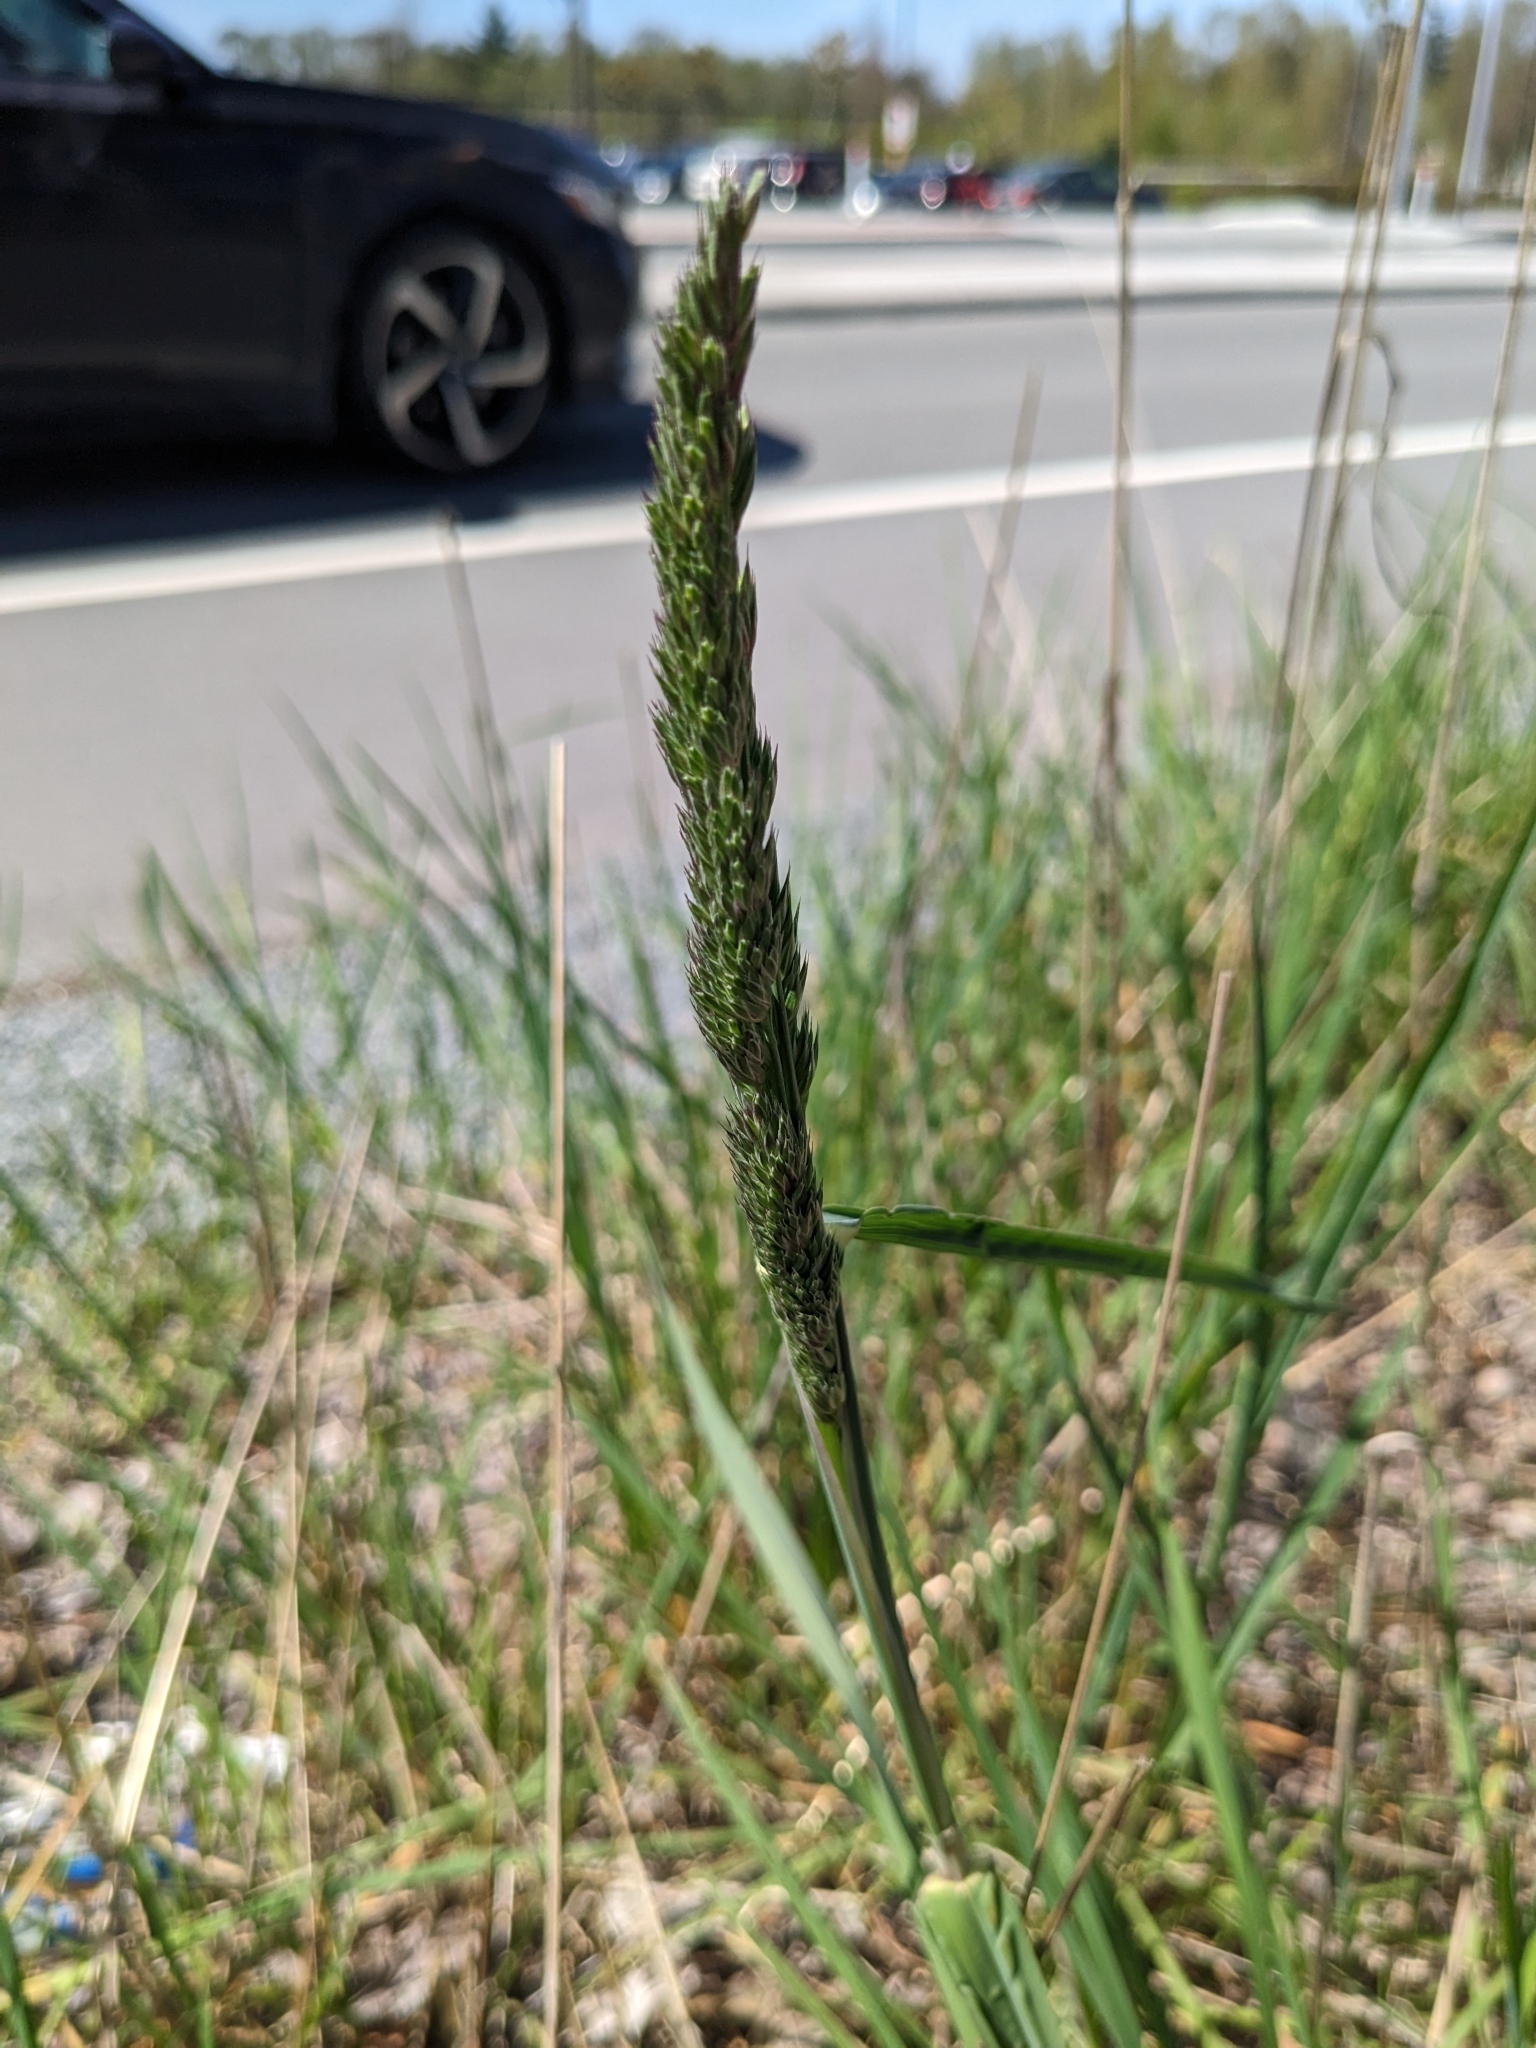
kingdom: Plantae
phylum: Tracheophyta
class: Liliopsida
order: Poales
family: Poaceae
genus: Dactylis
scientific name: Dactylis glomerata
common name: Orchardgrass
